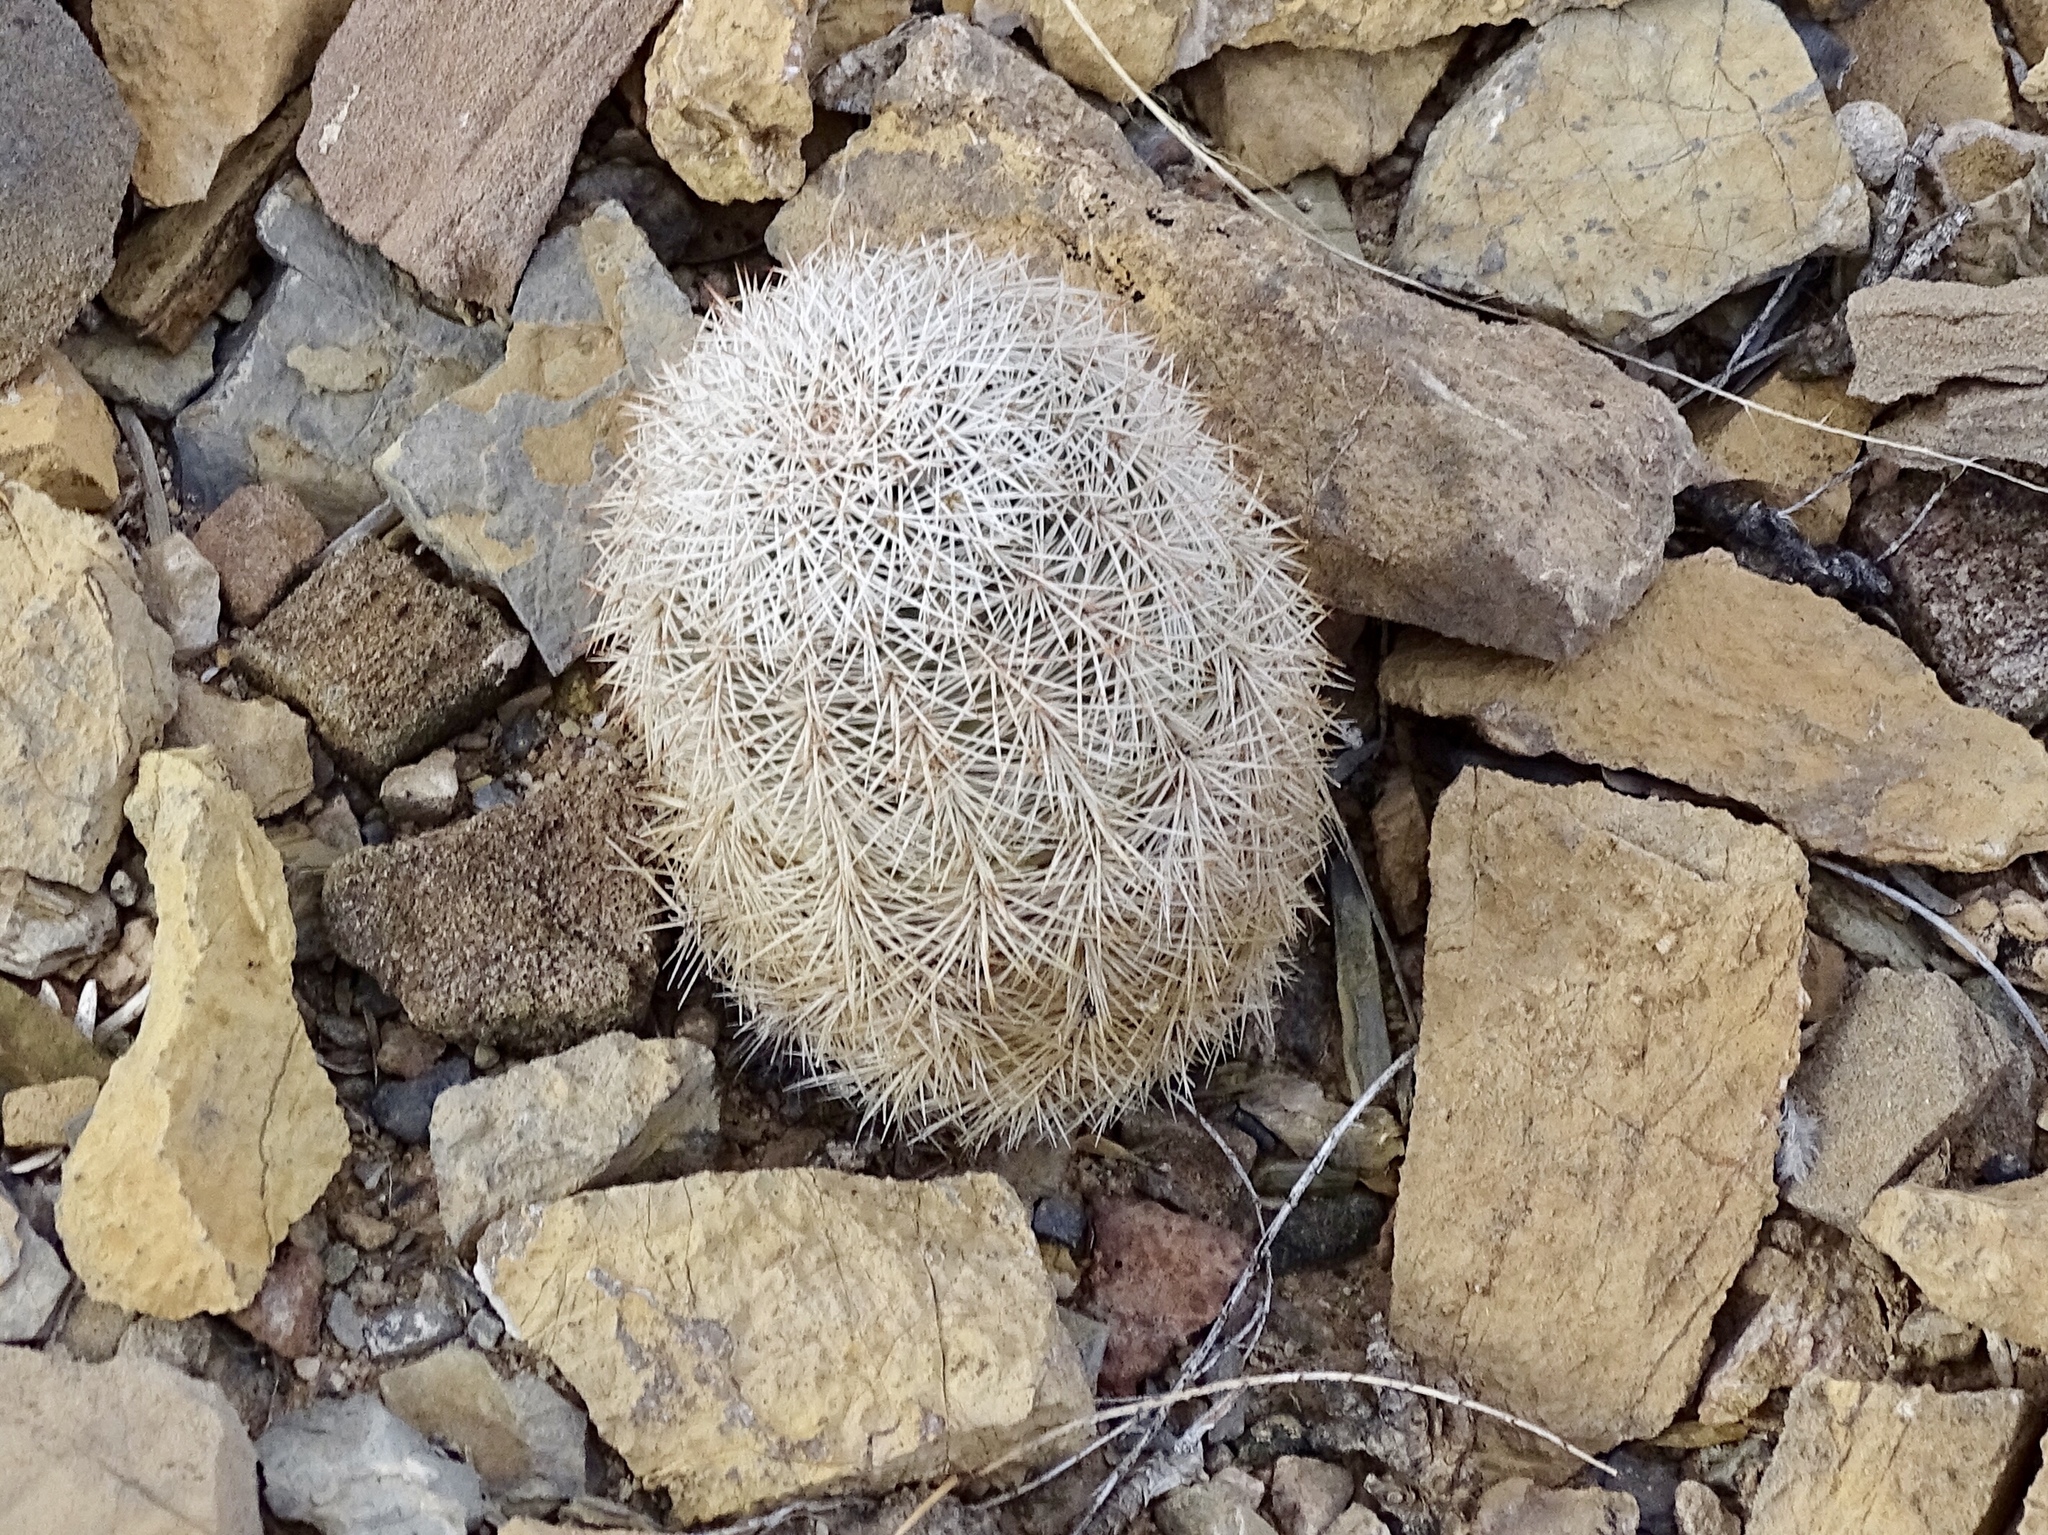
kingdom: Plantae
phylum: Tracheophyta
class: Magnoliopsida
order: Caryophyllales
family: Cactaceae
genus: Echinocereus
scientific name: Echinocereus dasyacanthus
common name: Spiny hedgehog cactus
